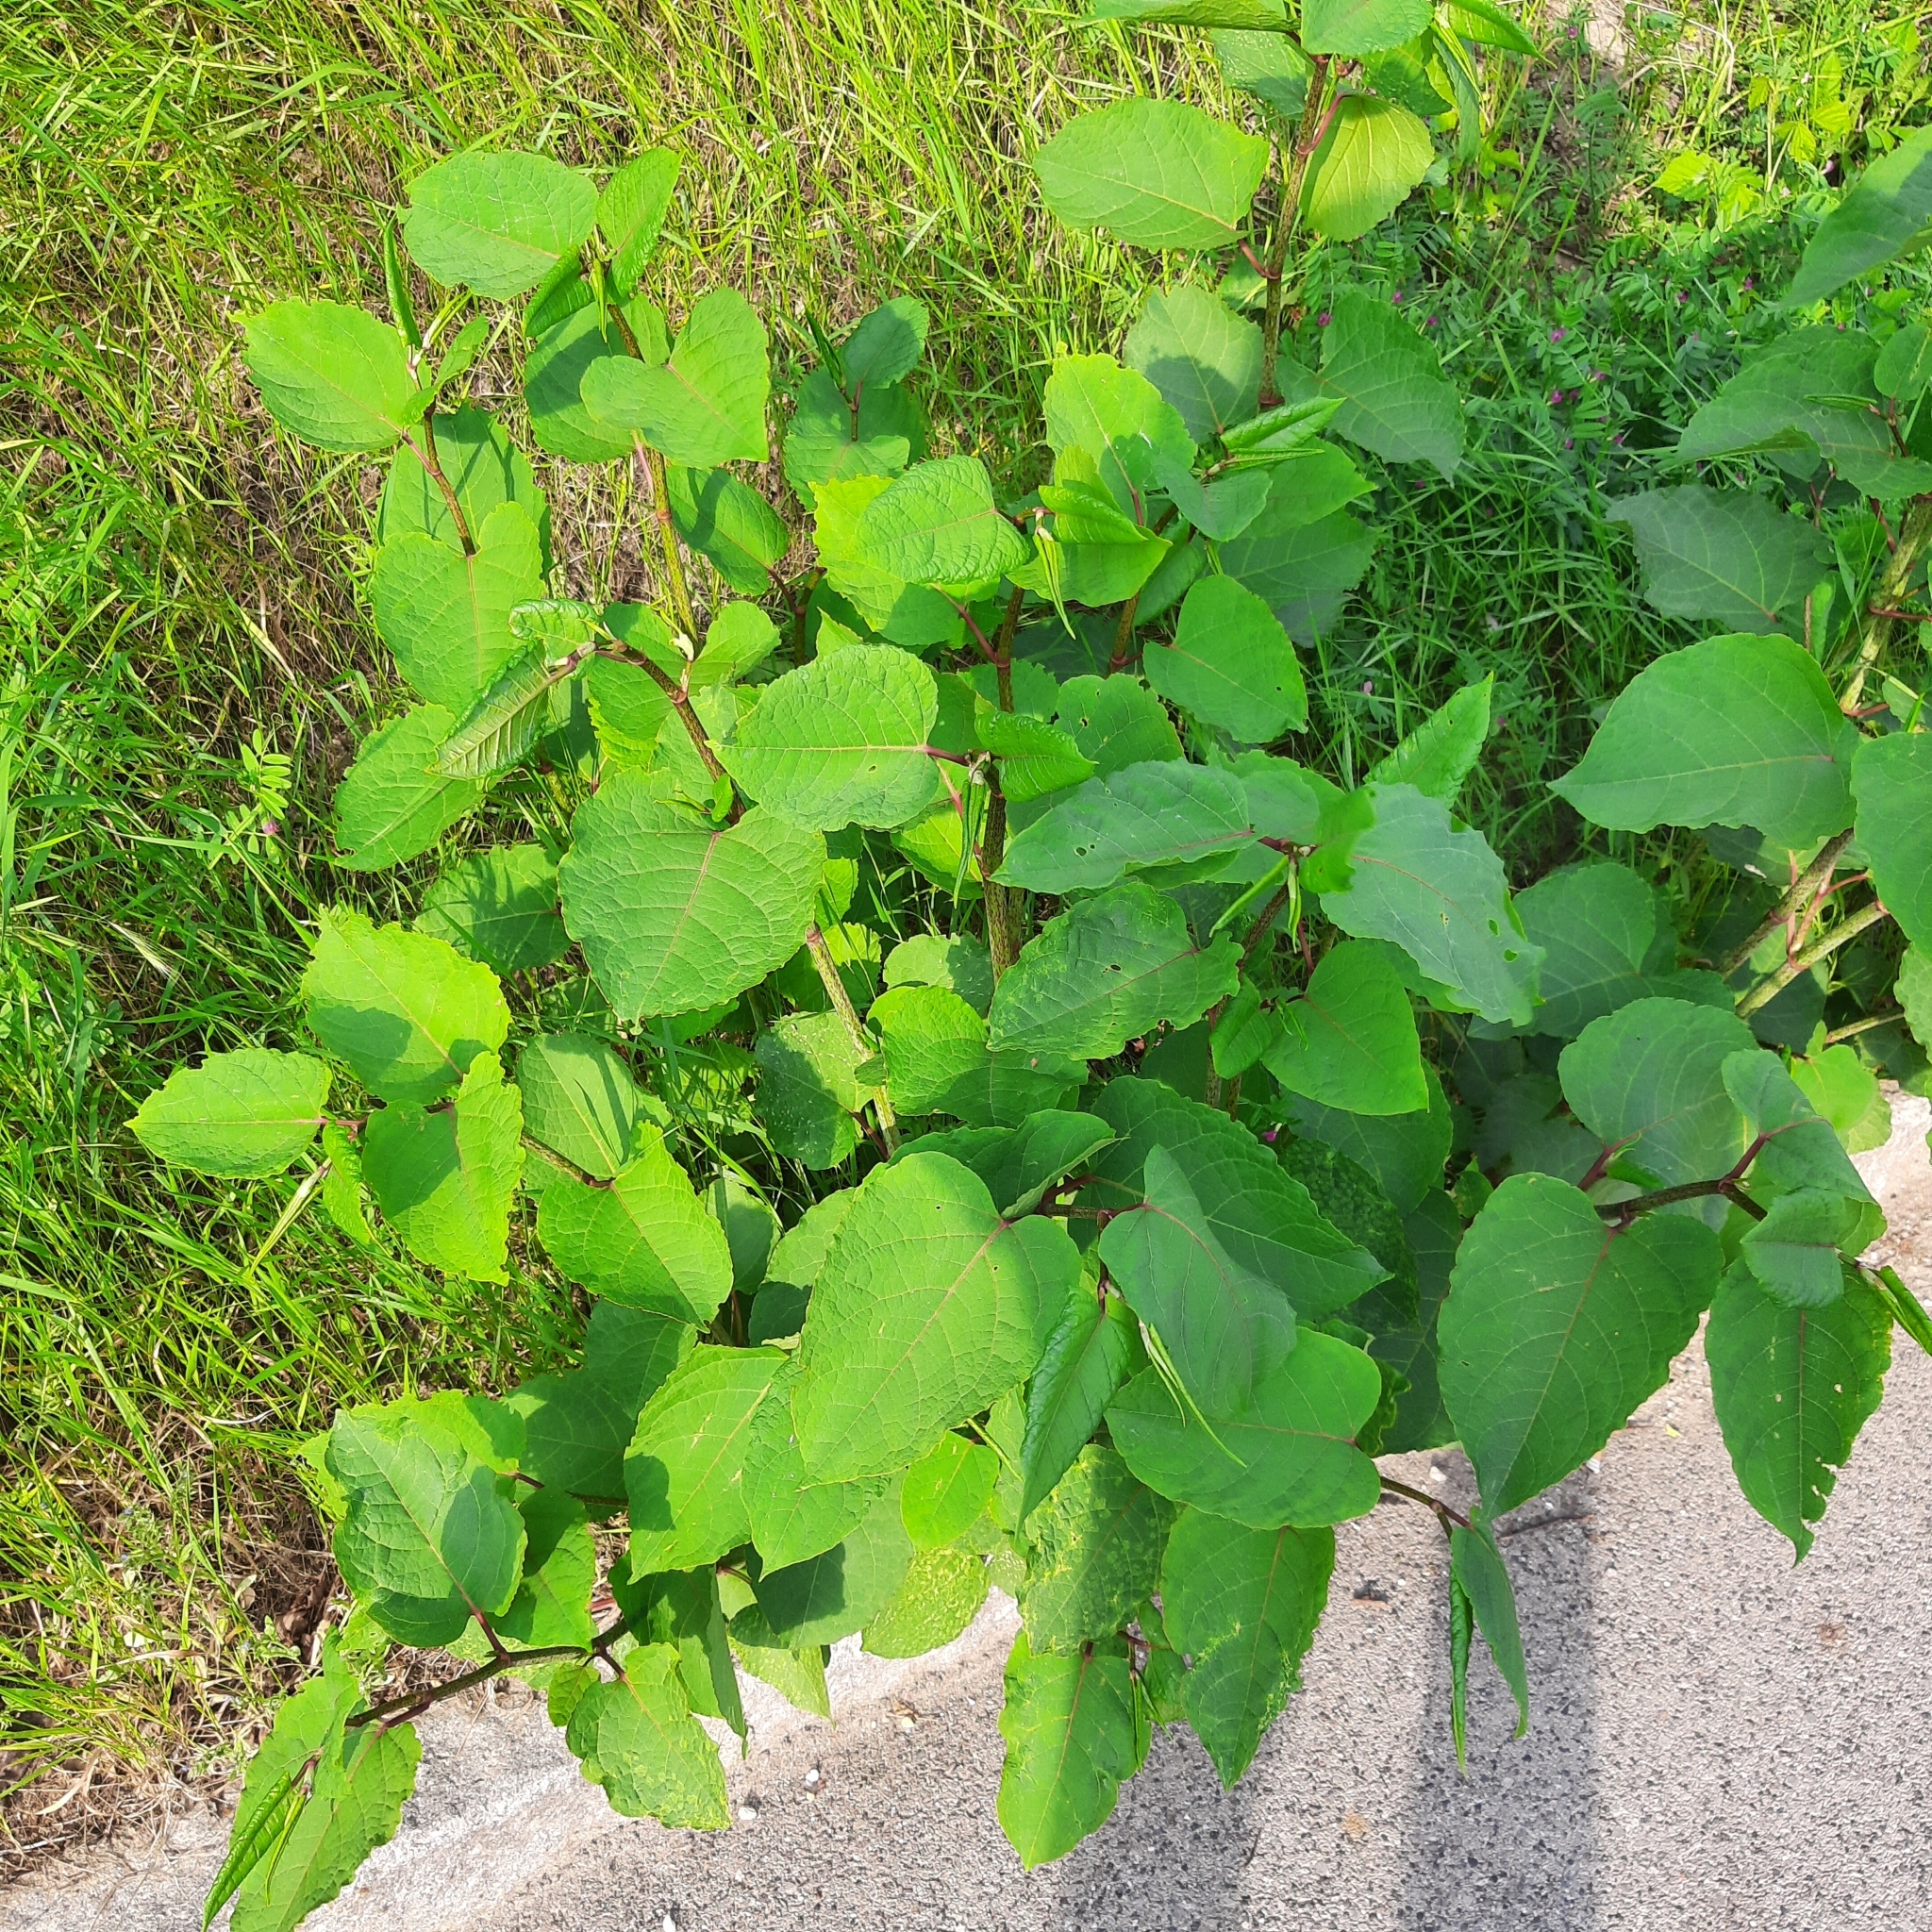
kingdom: Plantae
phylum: Tracheophyta
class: Magnoliopsida
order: Caryophyllales
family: Polygonaceae
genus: Reynoutria
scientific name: Reynoutria bohemica
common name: Bohemian knotweed
